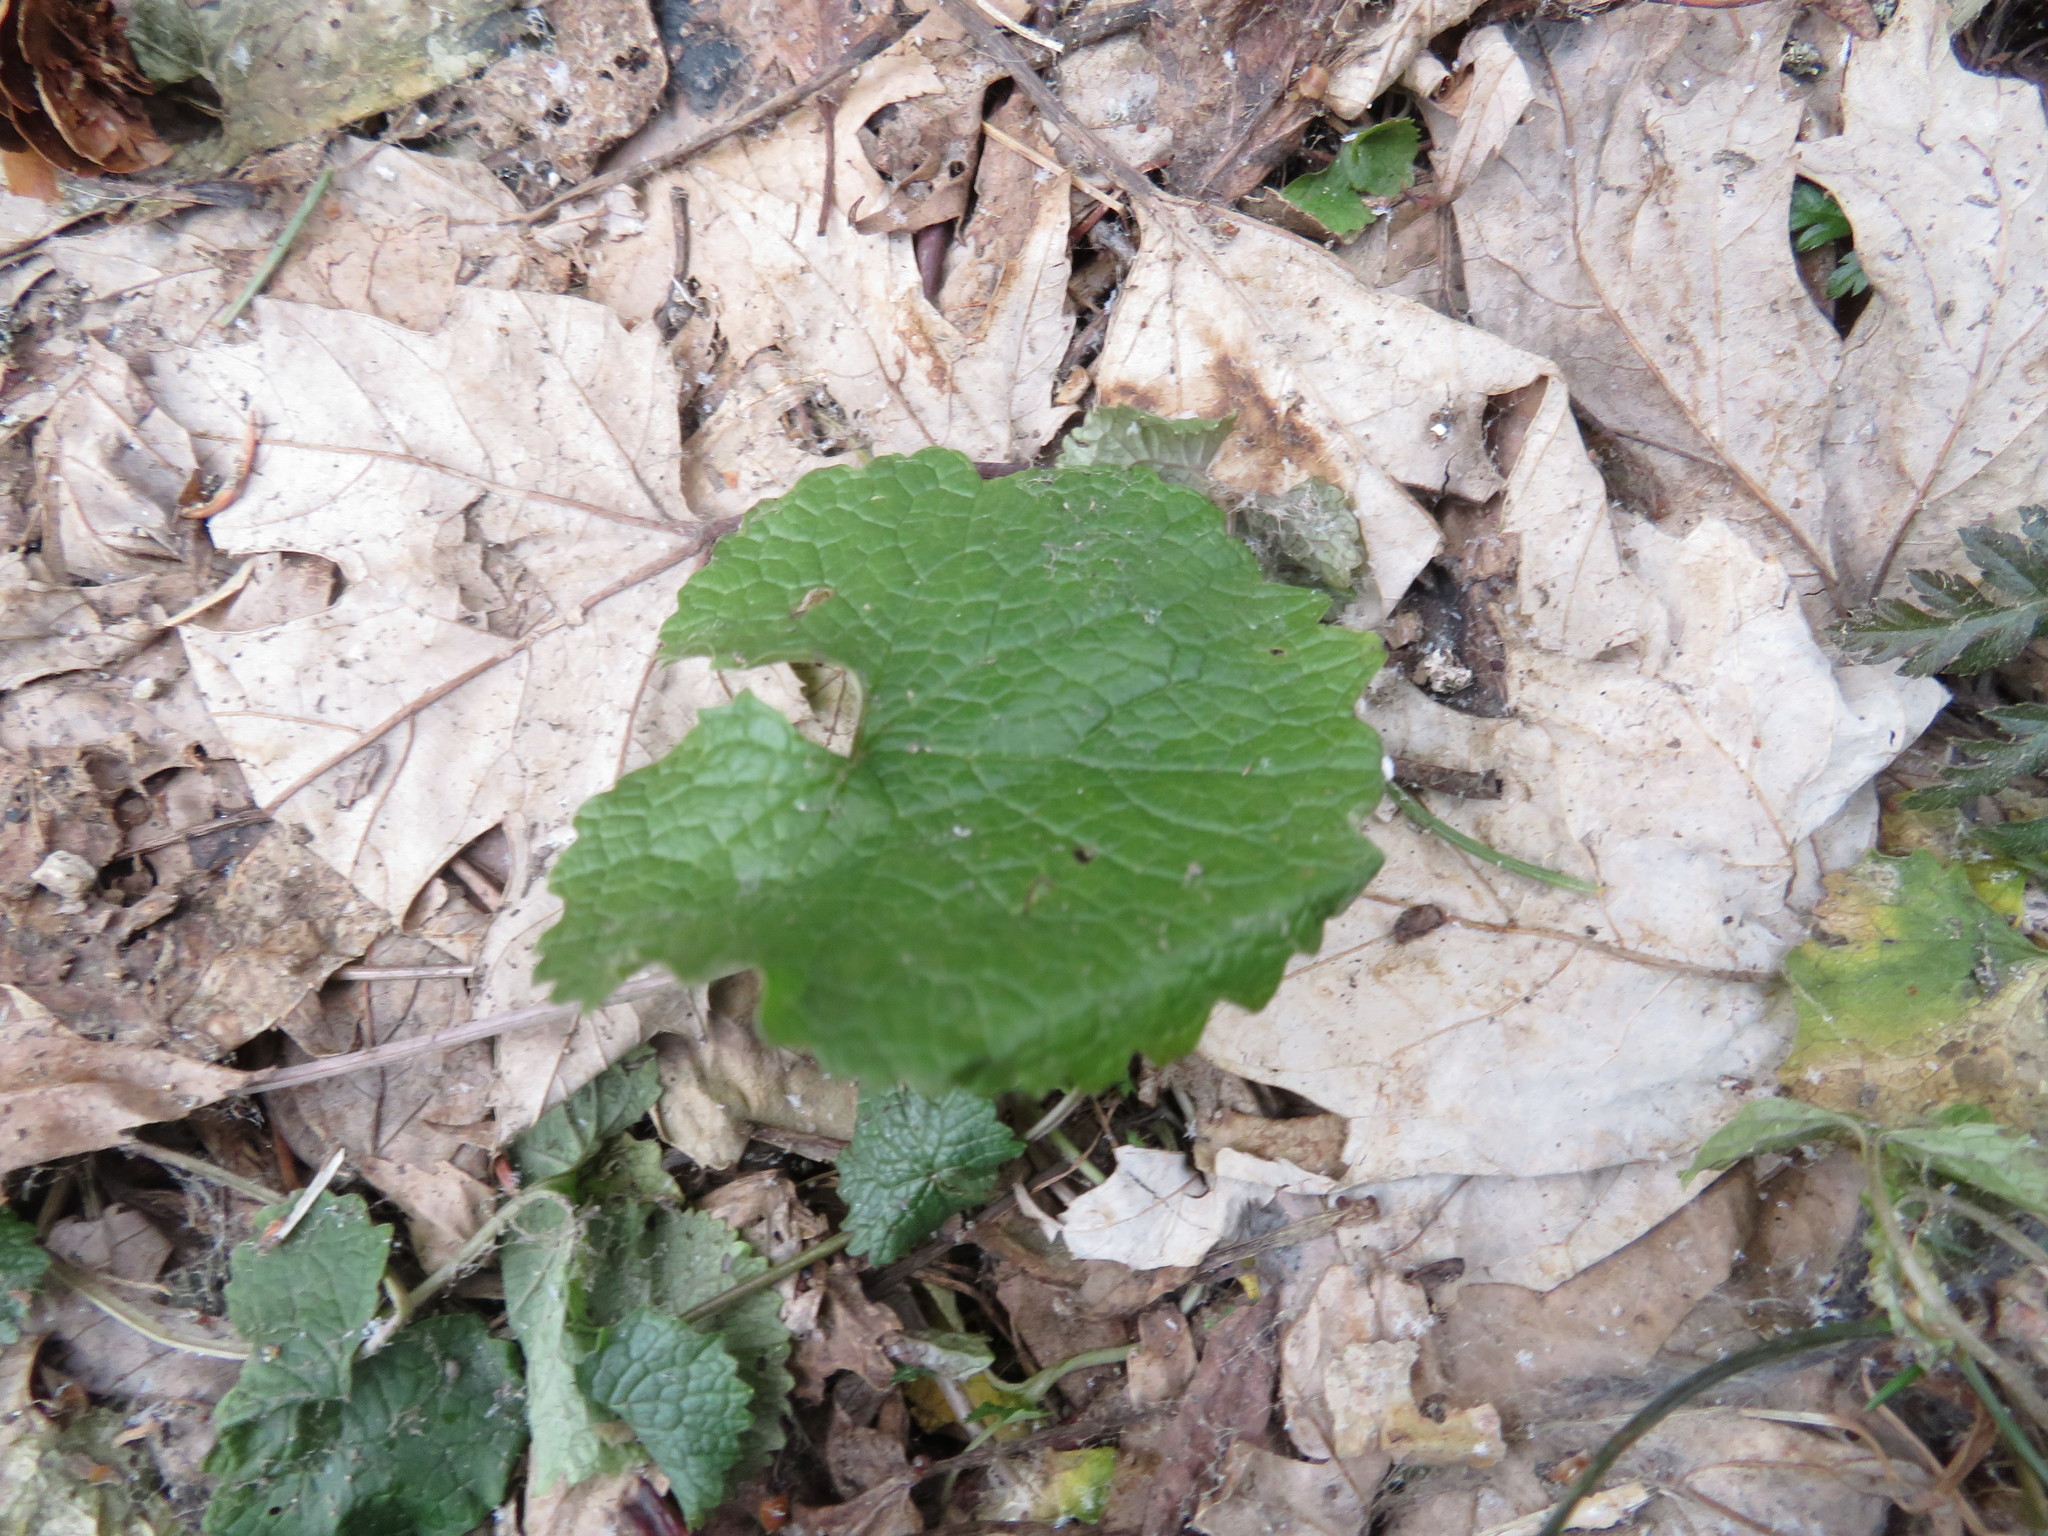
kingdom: Plantae
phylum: Tracheophyta
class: Magnoliopsida
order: Brassicales
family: Brassicaceae
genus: Alliaria
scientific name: Alliaria petiolata
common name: Garlic mustard
